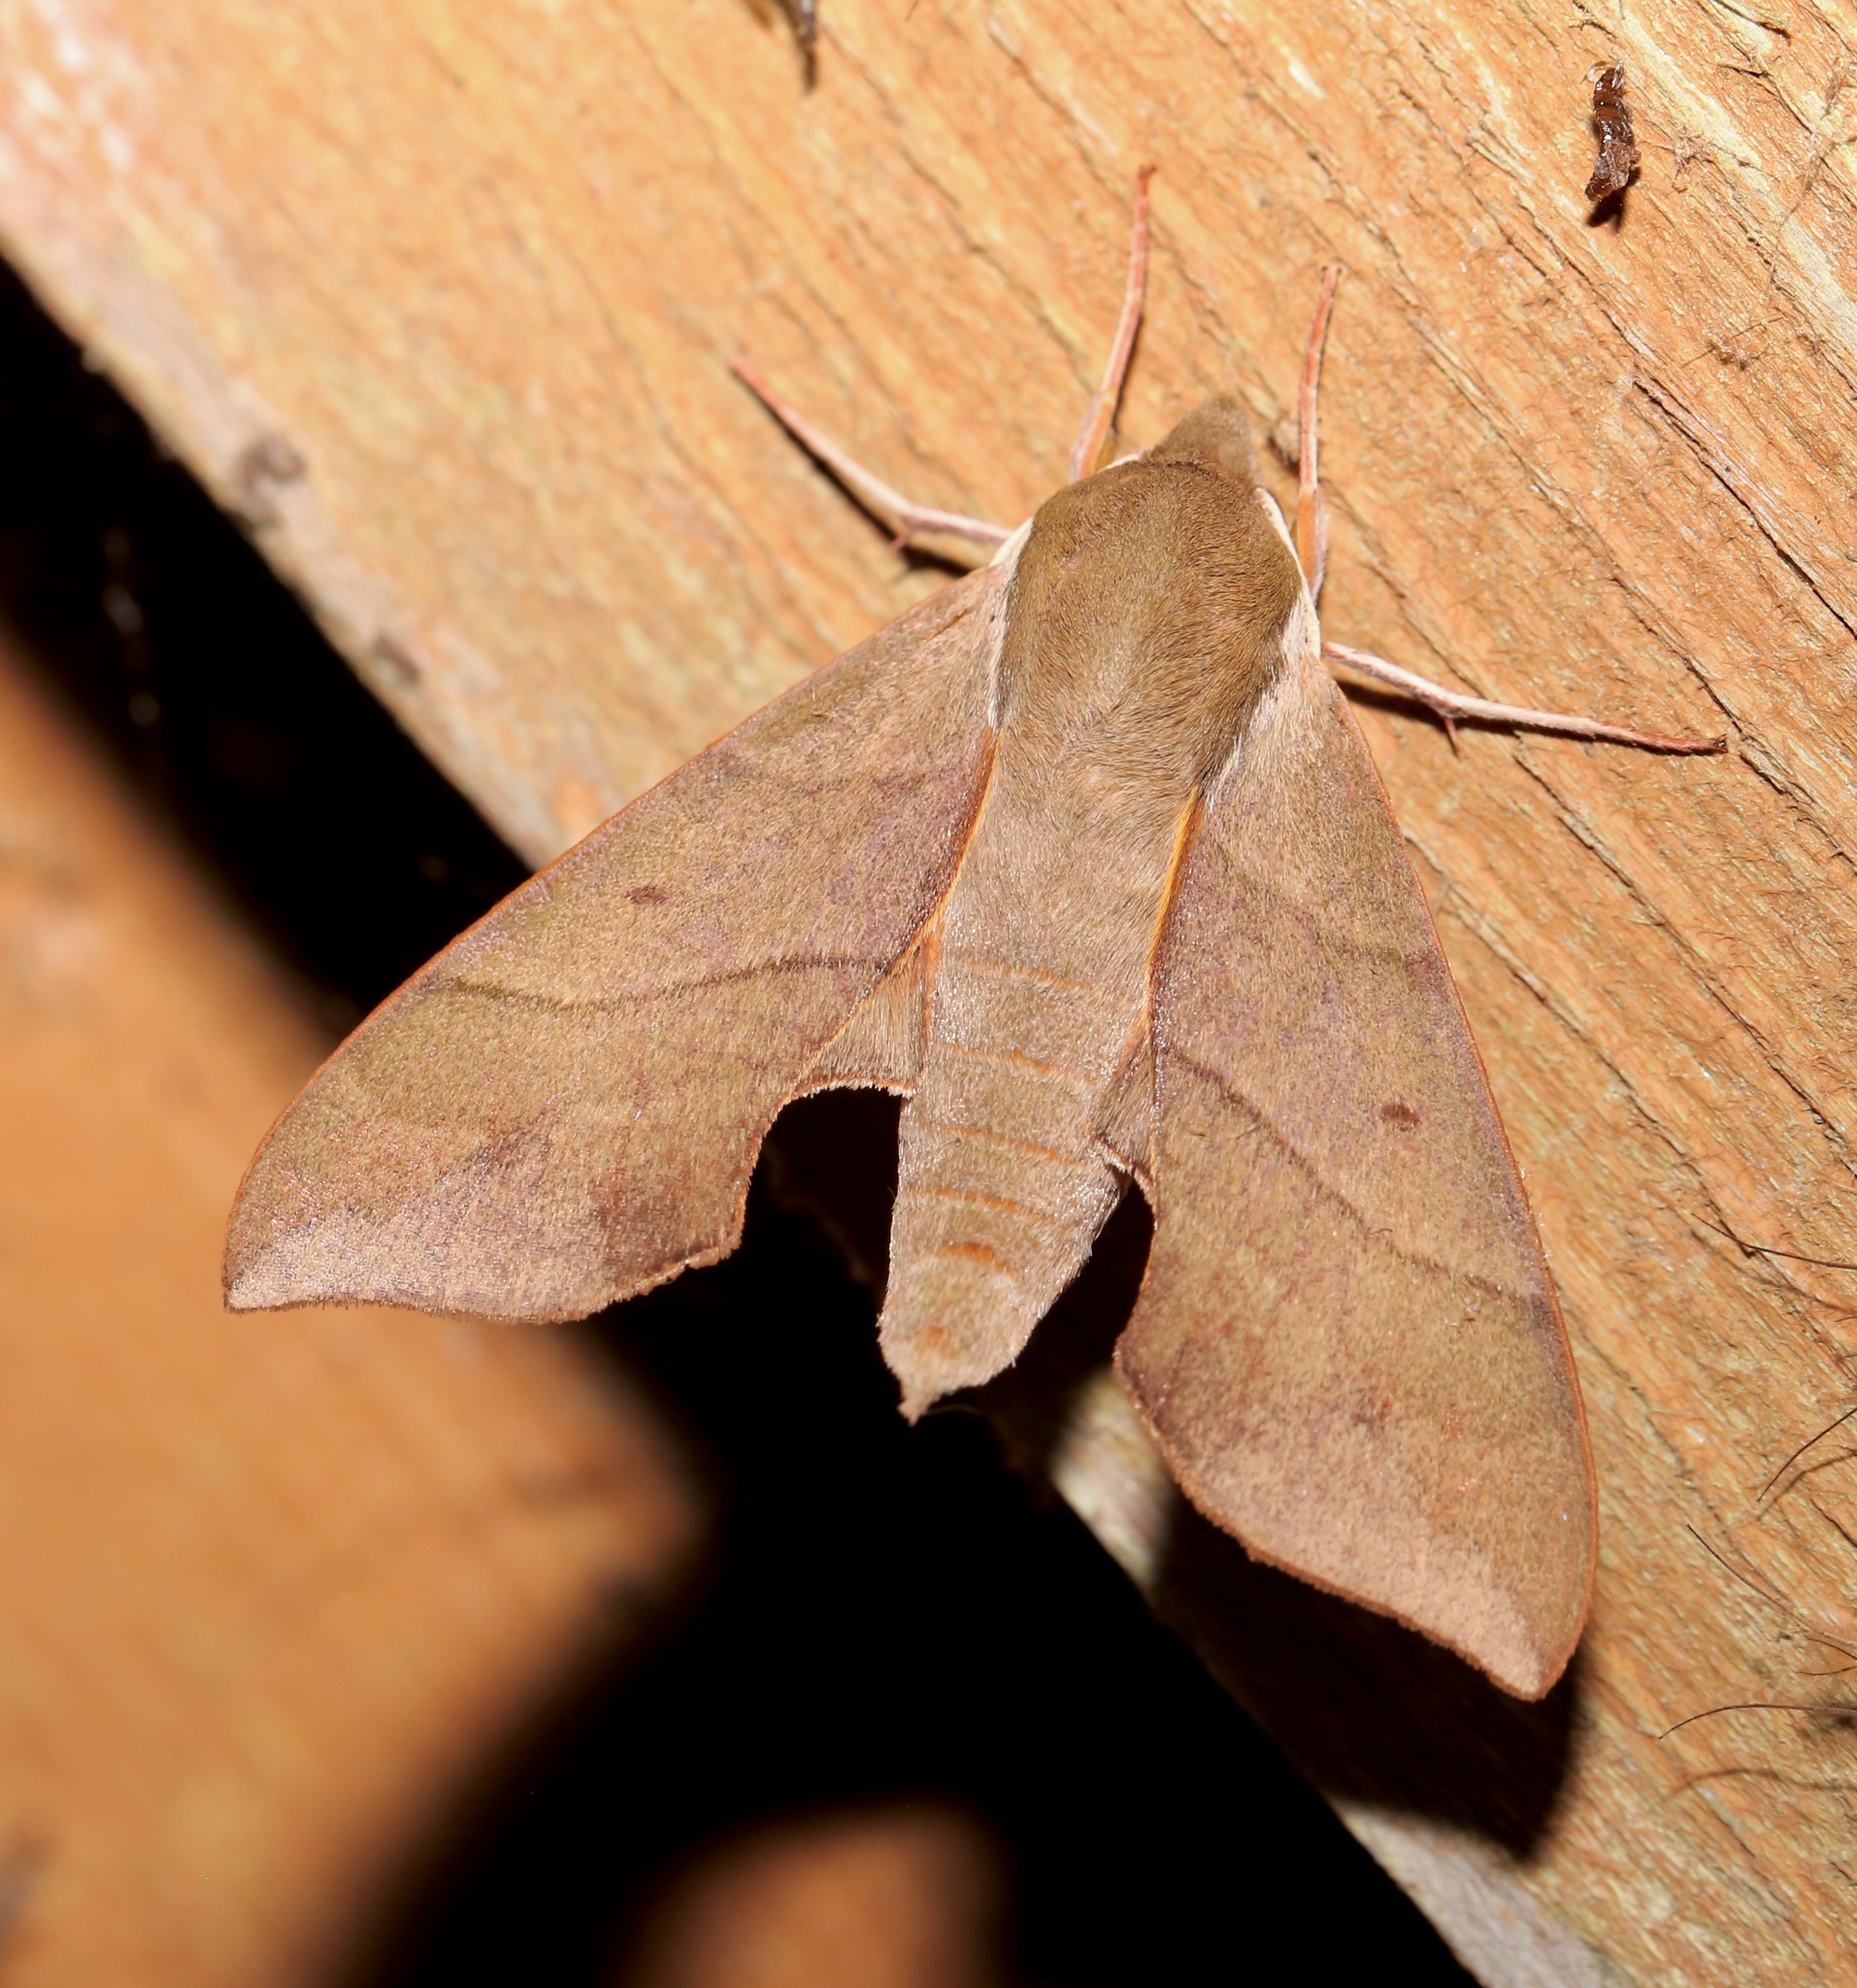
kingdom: Animalia
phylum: Arthropoda
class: Insecta
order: Lepidoptera
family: Sphingidae
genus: Darapsa
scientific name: Darapsa myron
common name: Hog sphinx
